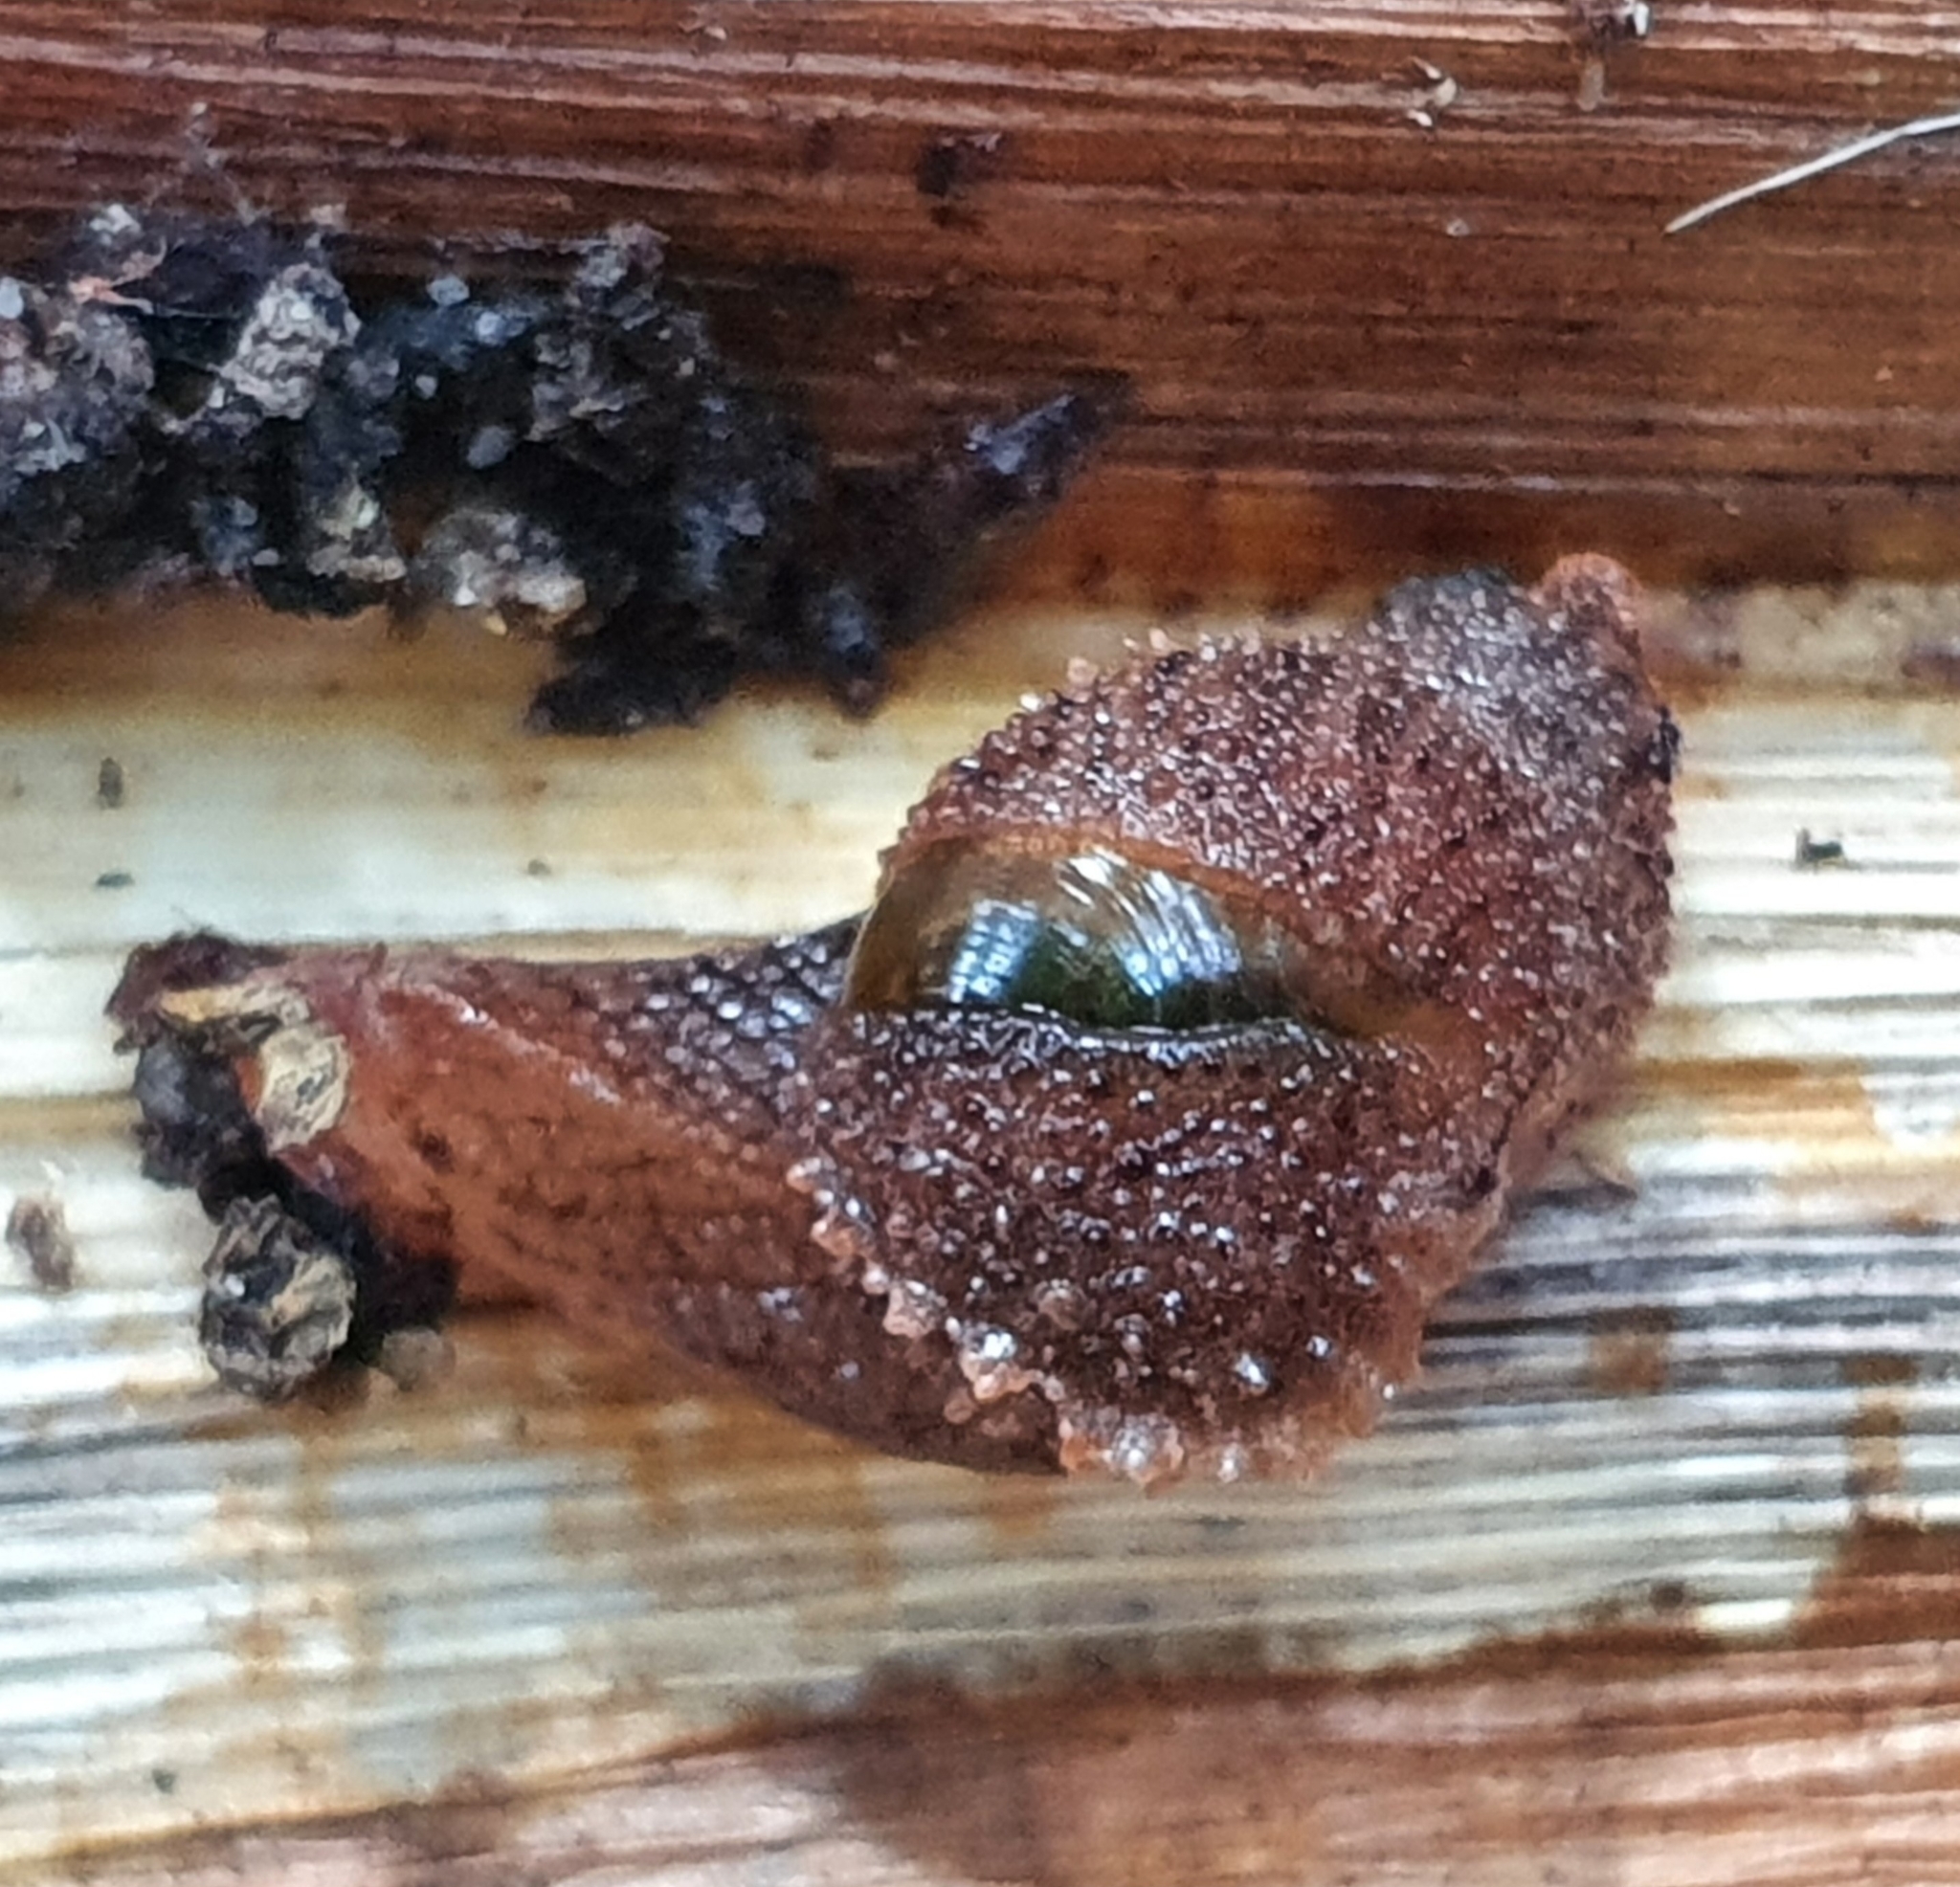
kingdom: Animalia
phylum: Mollusca
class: Gastropoda
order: Stylommatophora
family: Helicarionidae
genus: Stanisicarion
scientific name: Stanisicarion aquila
